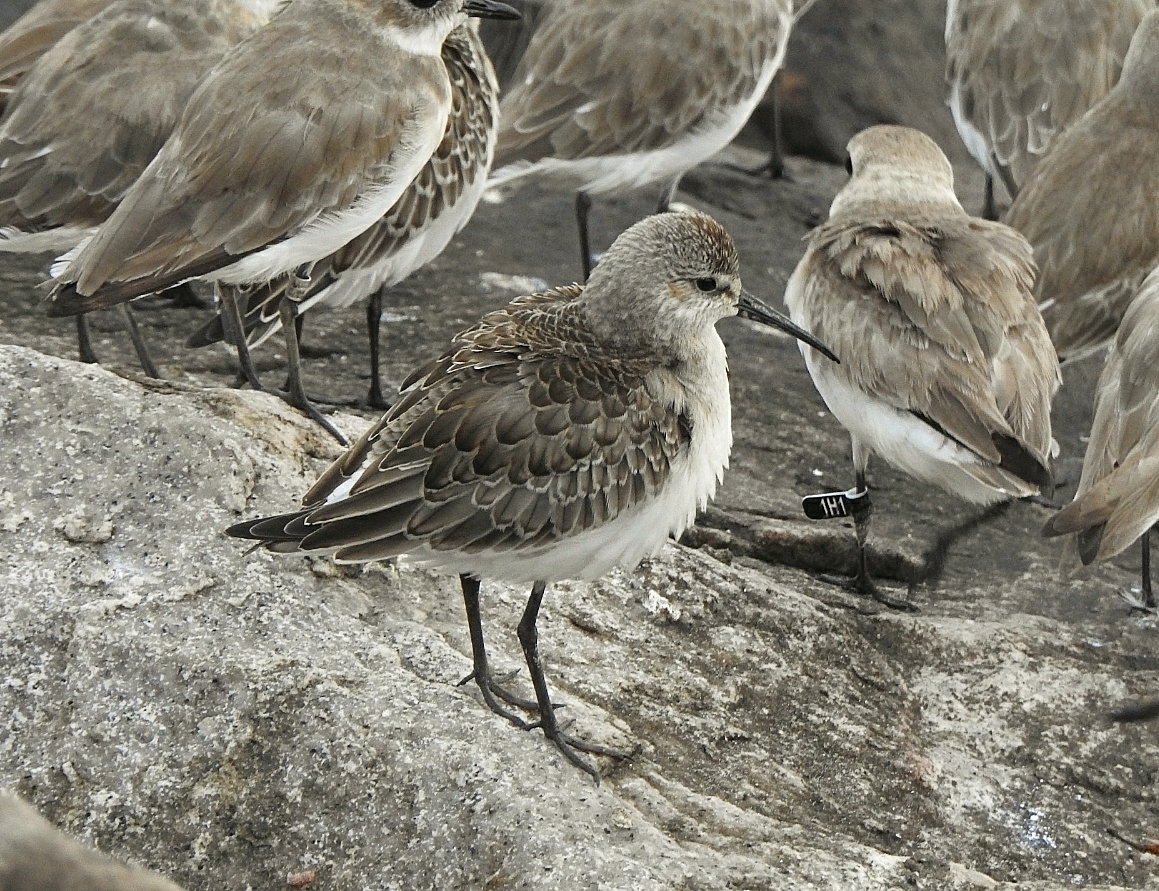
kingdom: Animalia
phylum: Chordata
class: Aves
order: Charadriiformes
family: Scolopacidae
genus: Calidris
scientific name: Calidris ferruginea
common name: Curlew sandpiper
